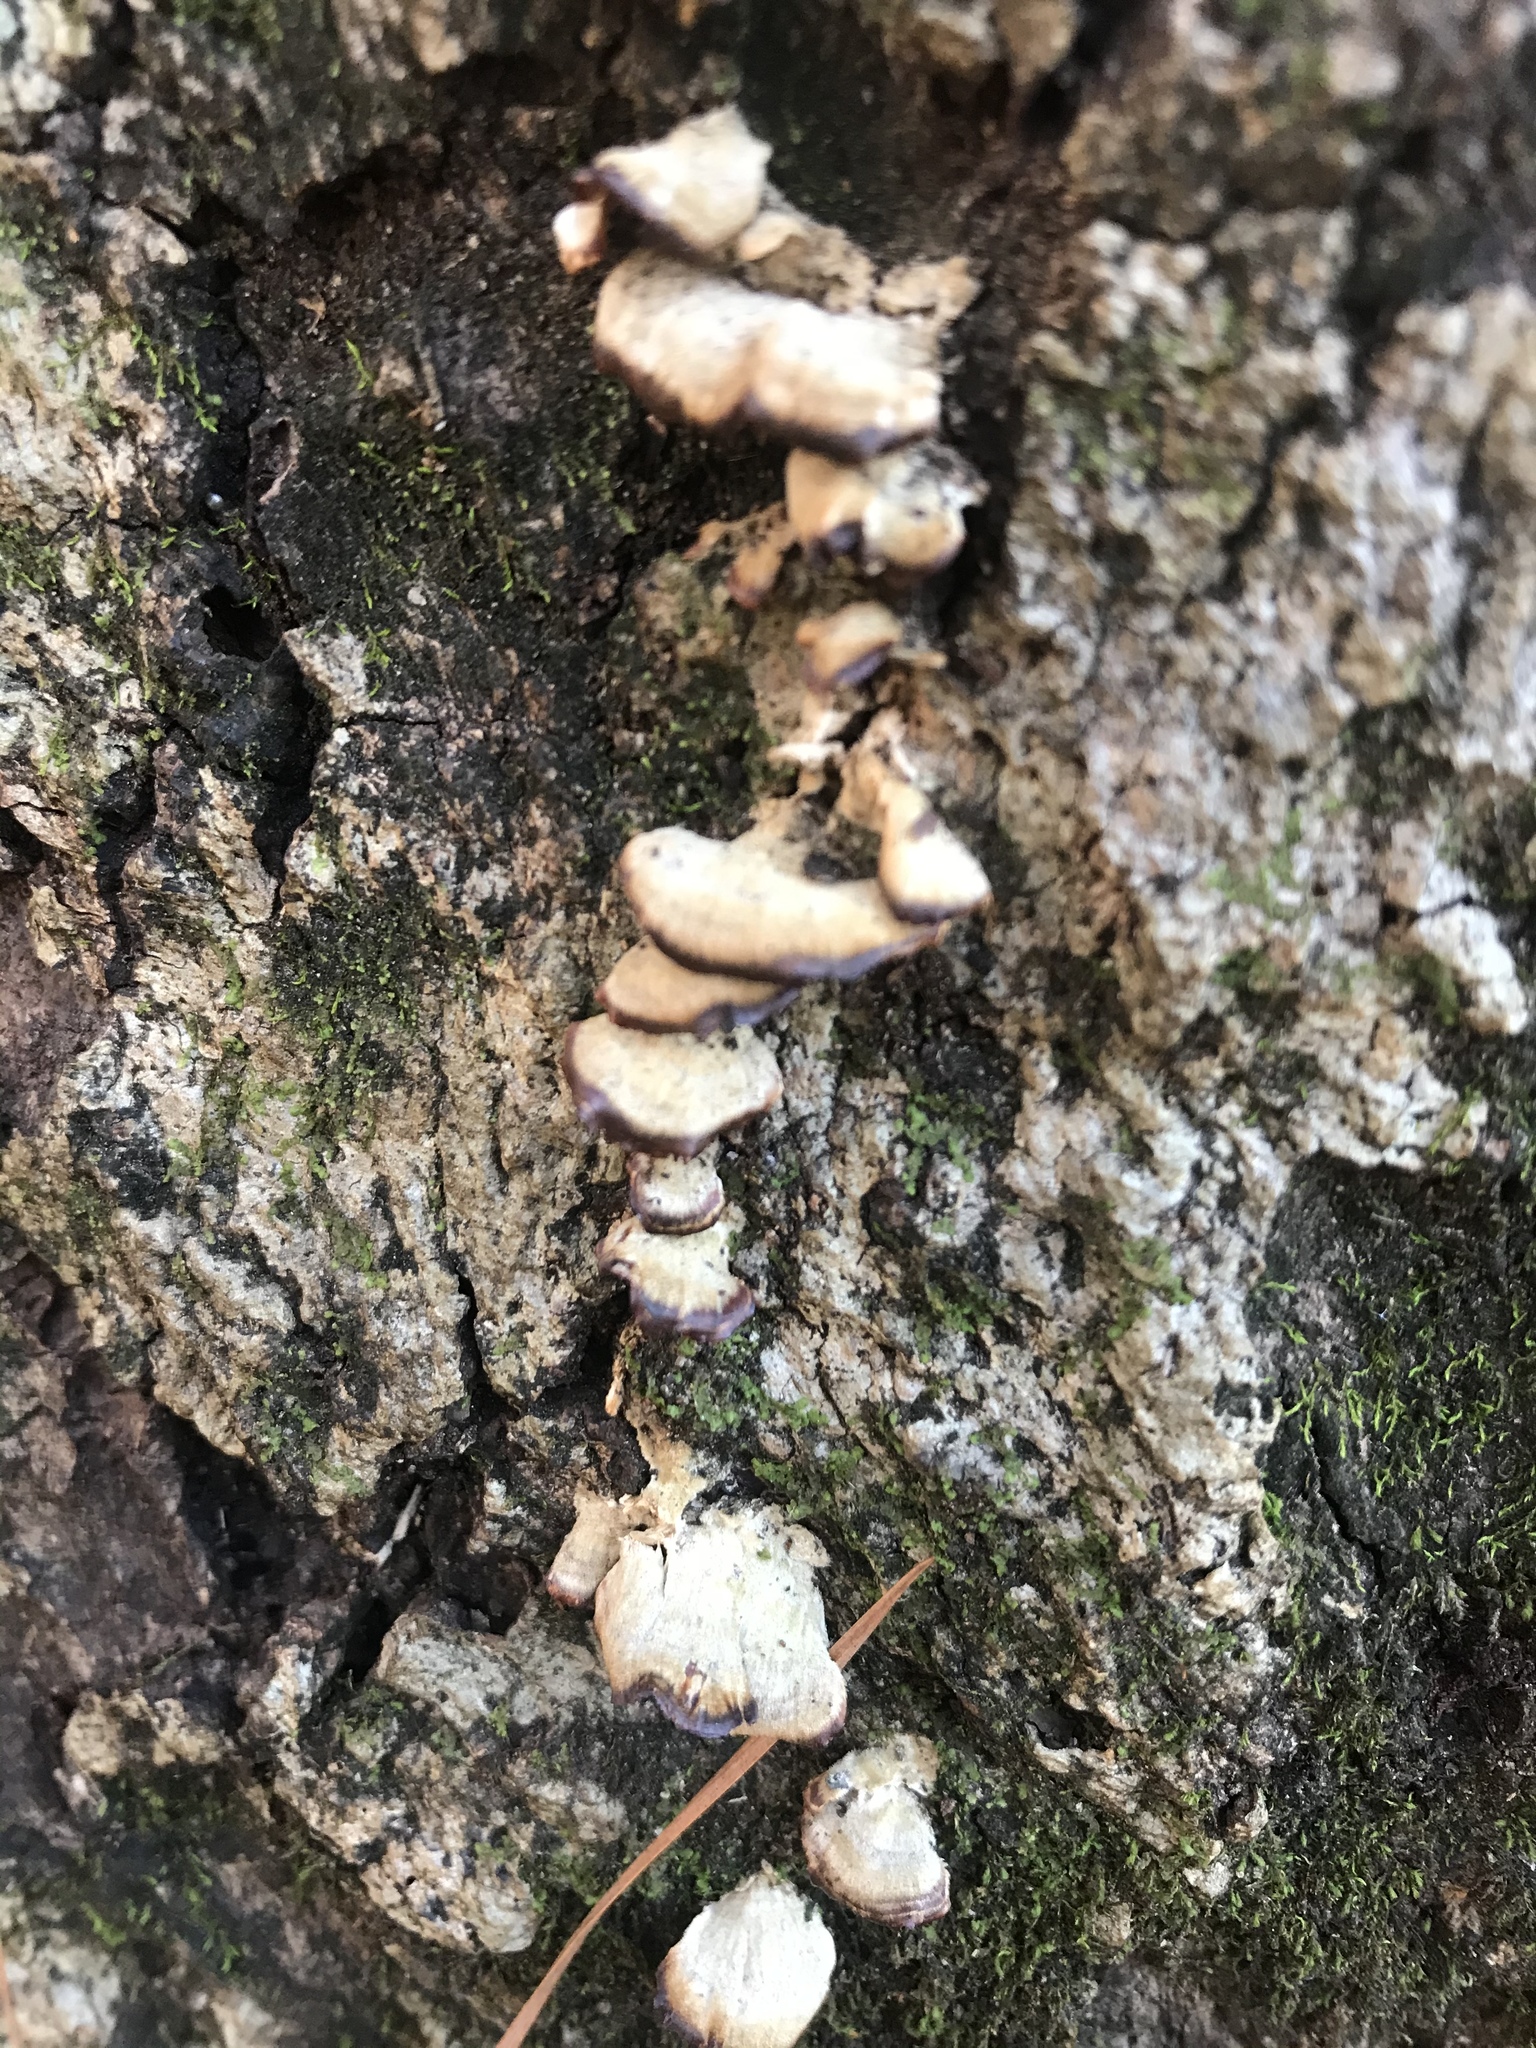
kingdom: Fungi
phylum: Basidiomycota
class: Agaricomycetes
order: Hymenochaetales
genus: Trichaptum
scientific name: Trichaptum biforme
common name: Violet-toothed polypore
